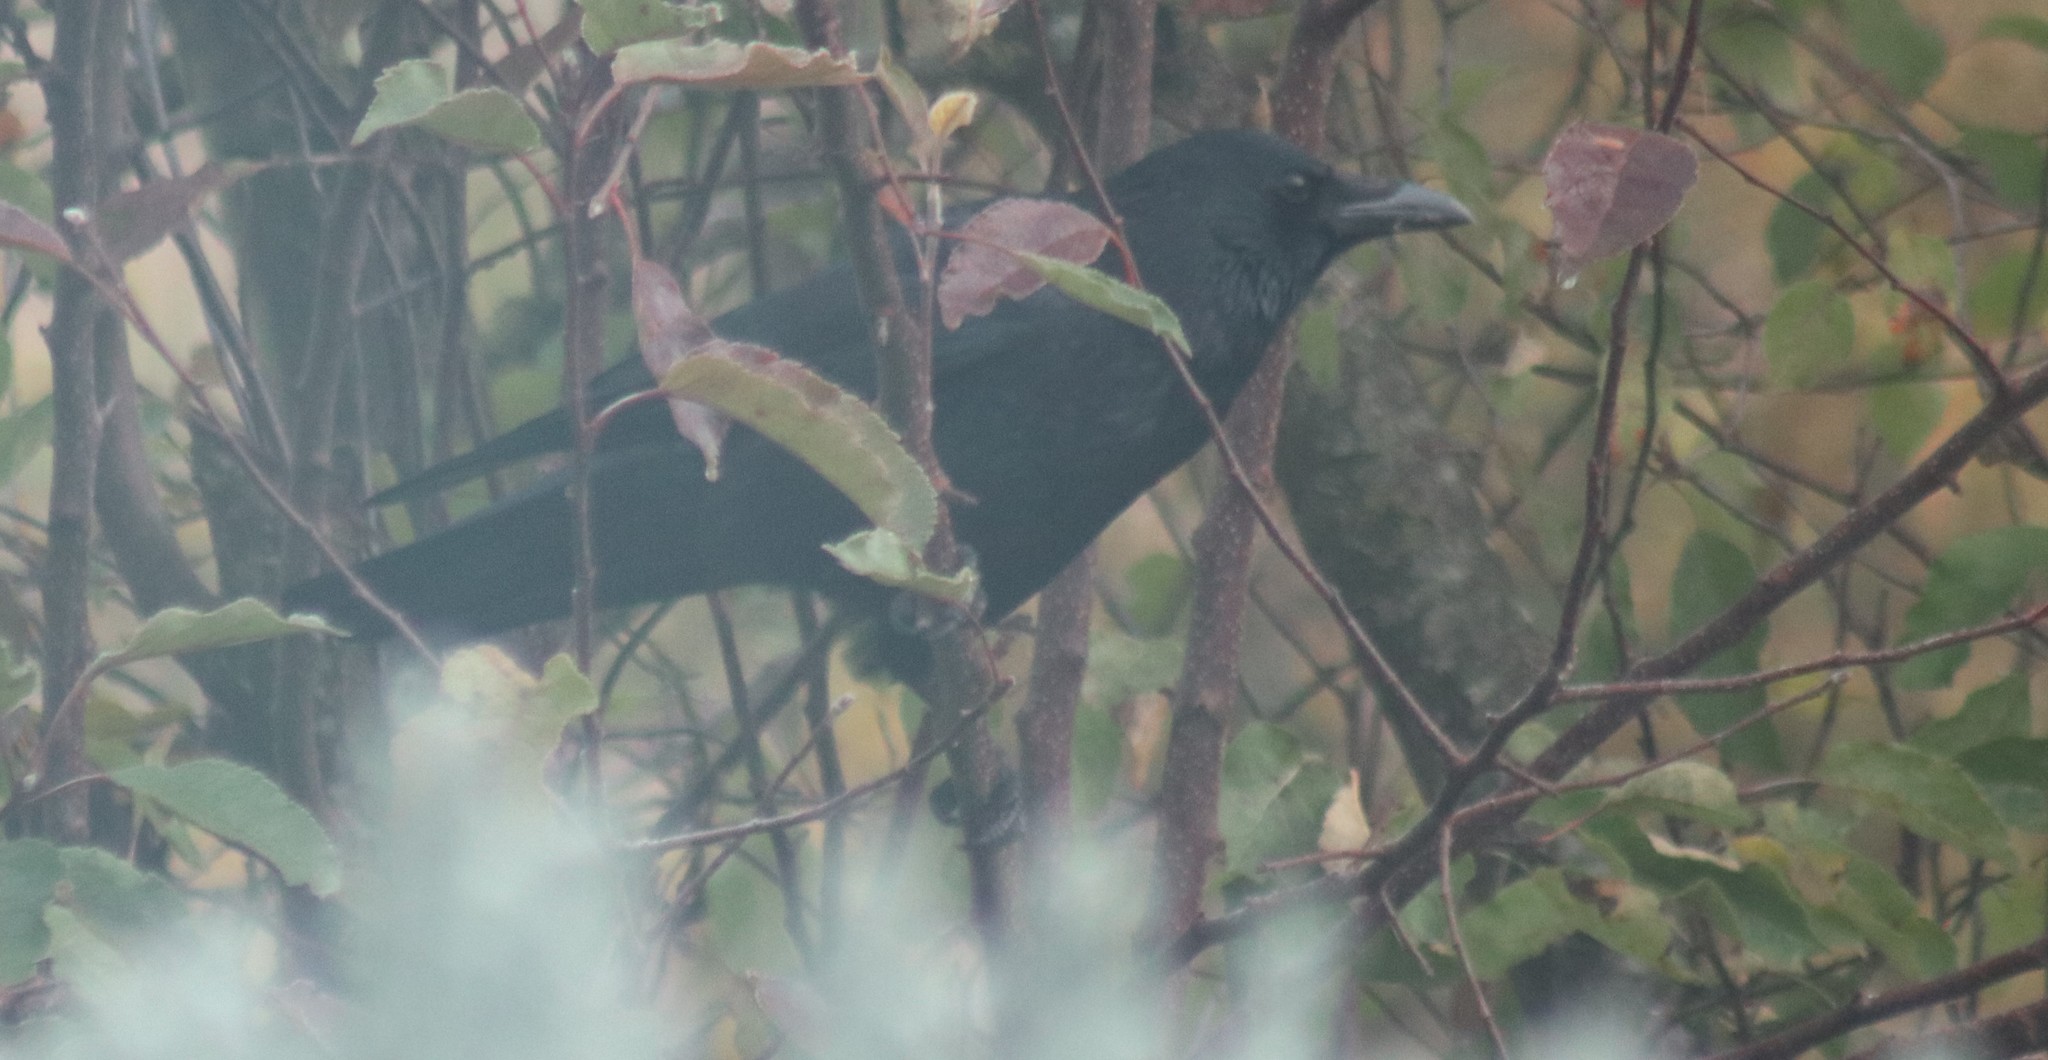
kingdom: Animalia
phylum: Chordata
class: Aves
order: Passeriformes
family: Corvidae
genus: Corvus
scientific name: Corvus corone
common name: Carrion crow
